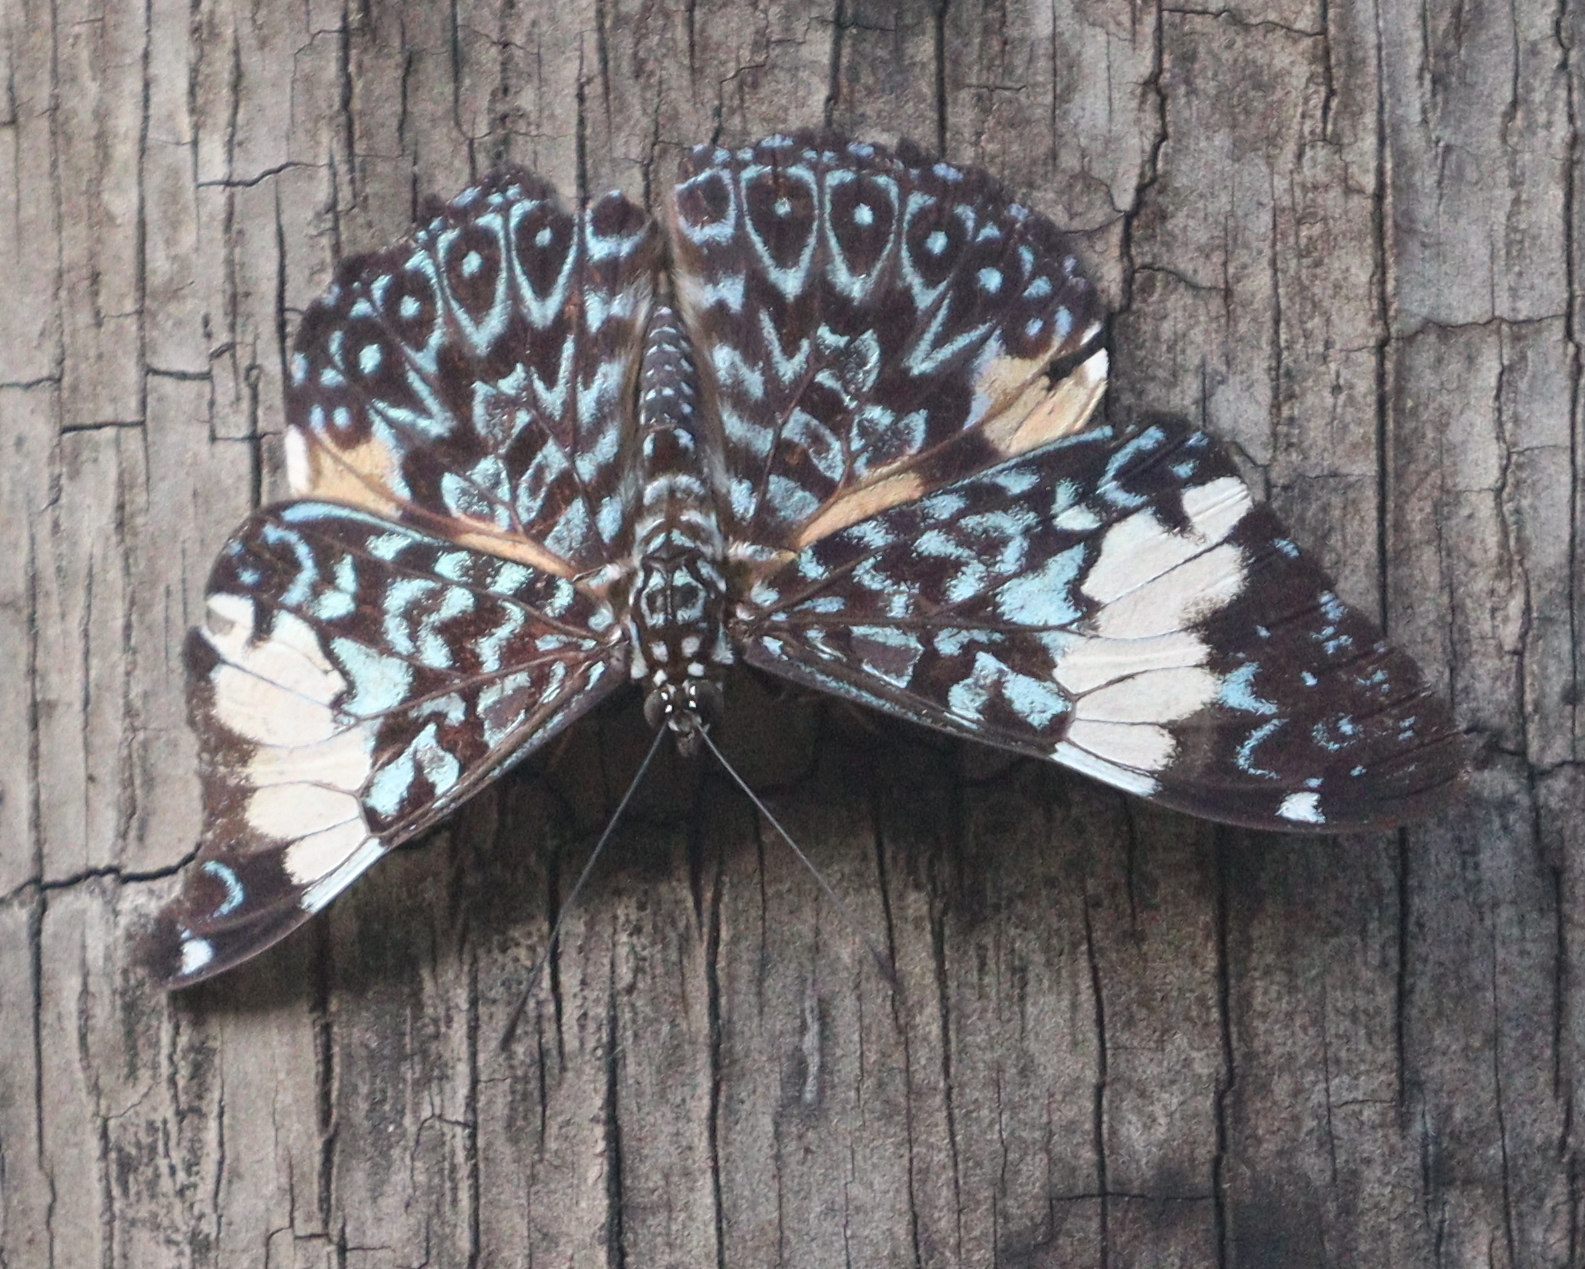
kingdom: Animalia
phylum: Arthropoda
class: Insecta
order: Lepidoptera
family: Nymphalidae
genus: Hamadryas
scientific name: Hamadryas amphinome
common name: Red cracker
